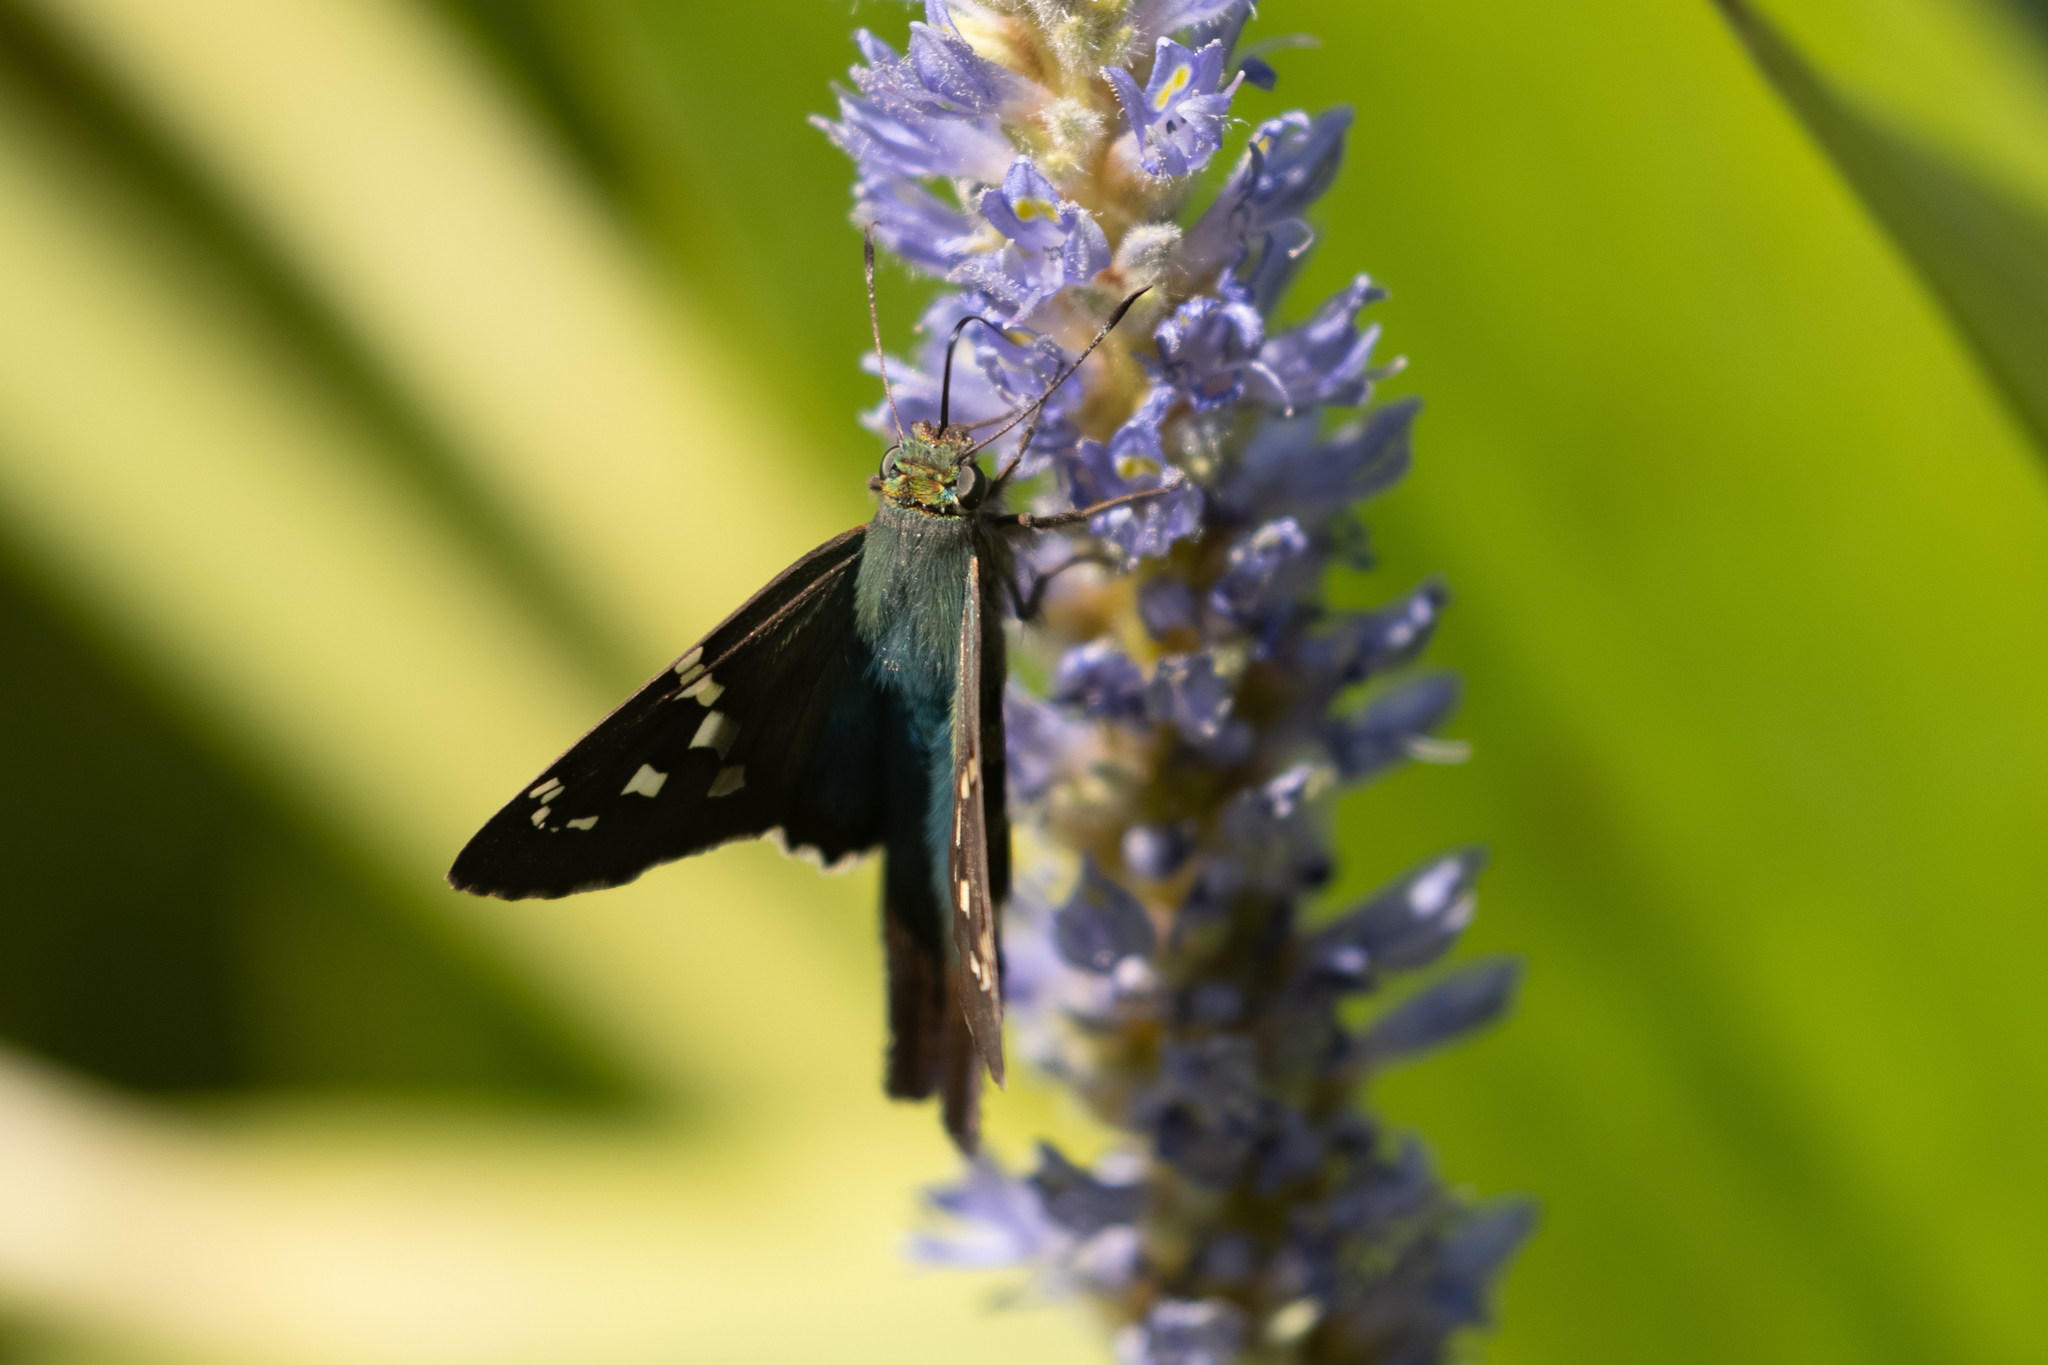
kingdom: Animalia
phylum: Arthropoda
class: Insecta
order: Lepidoptera
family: Hesperiidae
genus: Urbanus
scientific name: Urbanus proteus
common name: Long-tailed skipper
